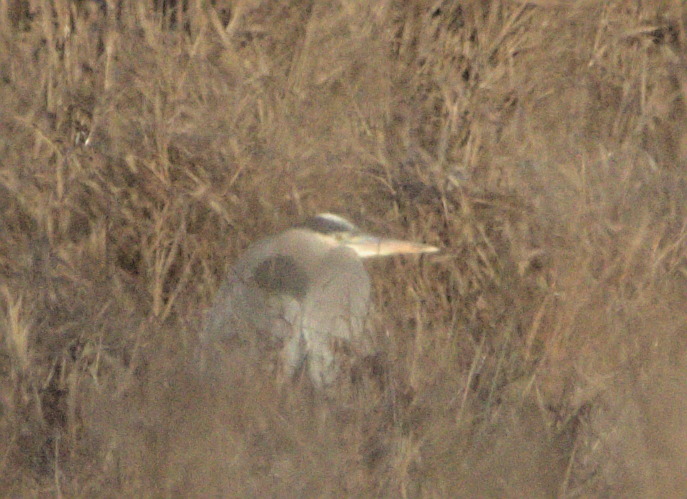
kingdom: Animalia
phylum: Chordata
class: Aves
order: Pelecaniformes
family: Ardeidae
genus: Ardea
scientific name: Ardea herodias
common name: Great blue heron
